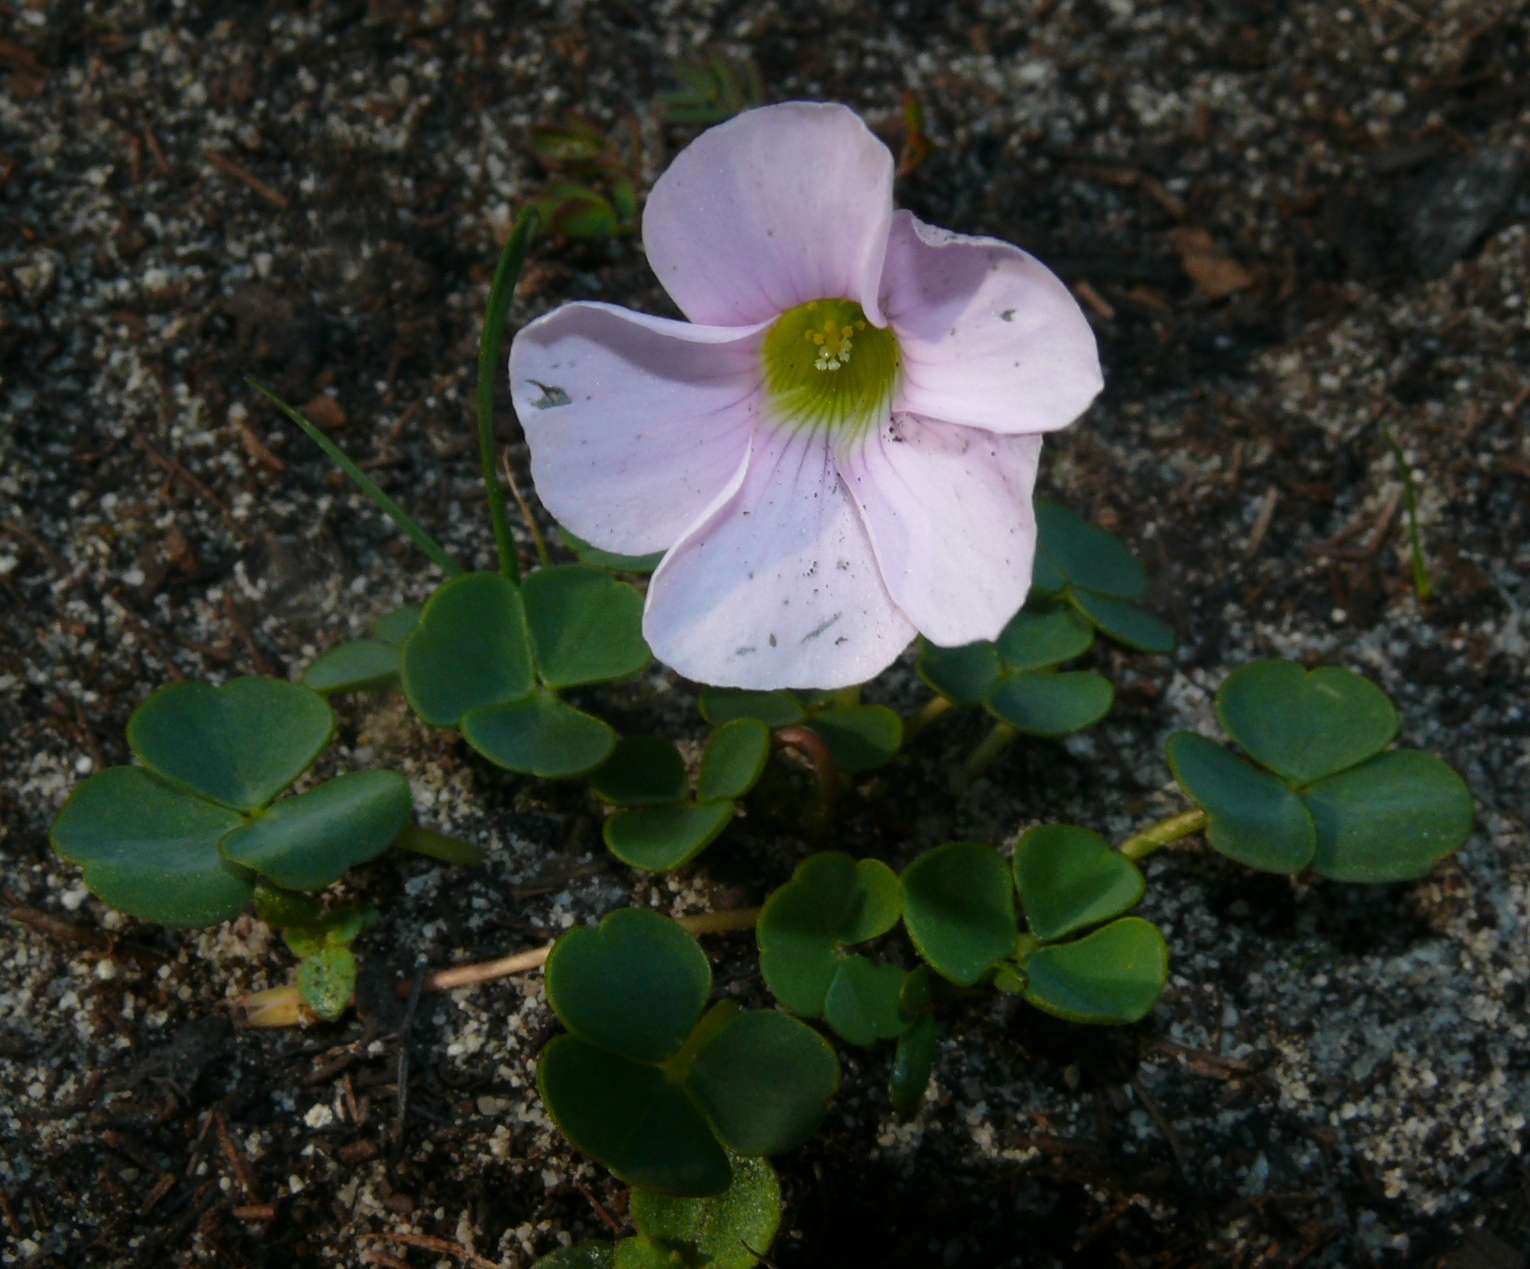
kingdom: Plantae
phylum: Tracheophyta
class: Magnoliopsida
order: Oxalidales
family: Oxalidaceae
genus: Oxalis
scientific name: Oxalis commutata
